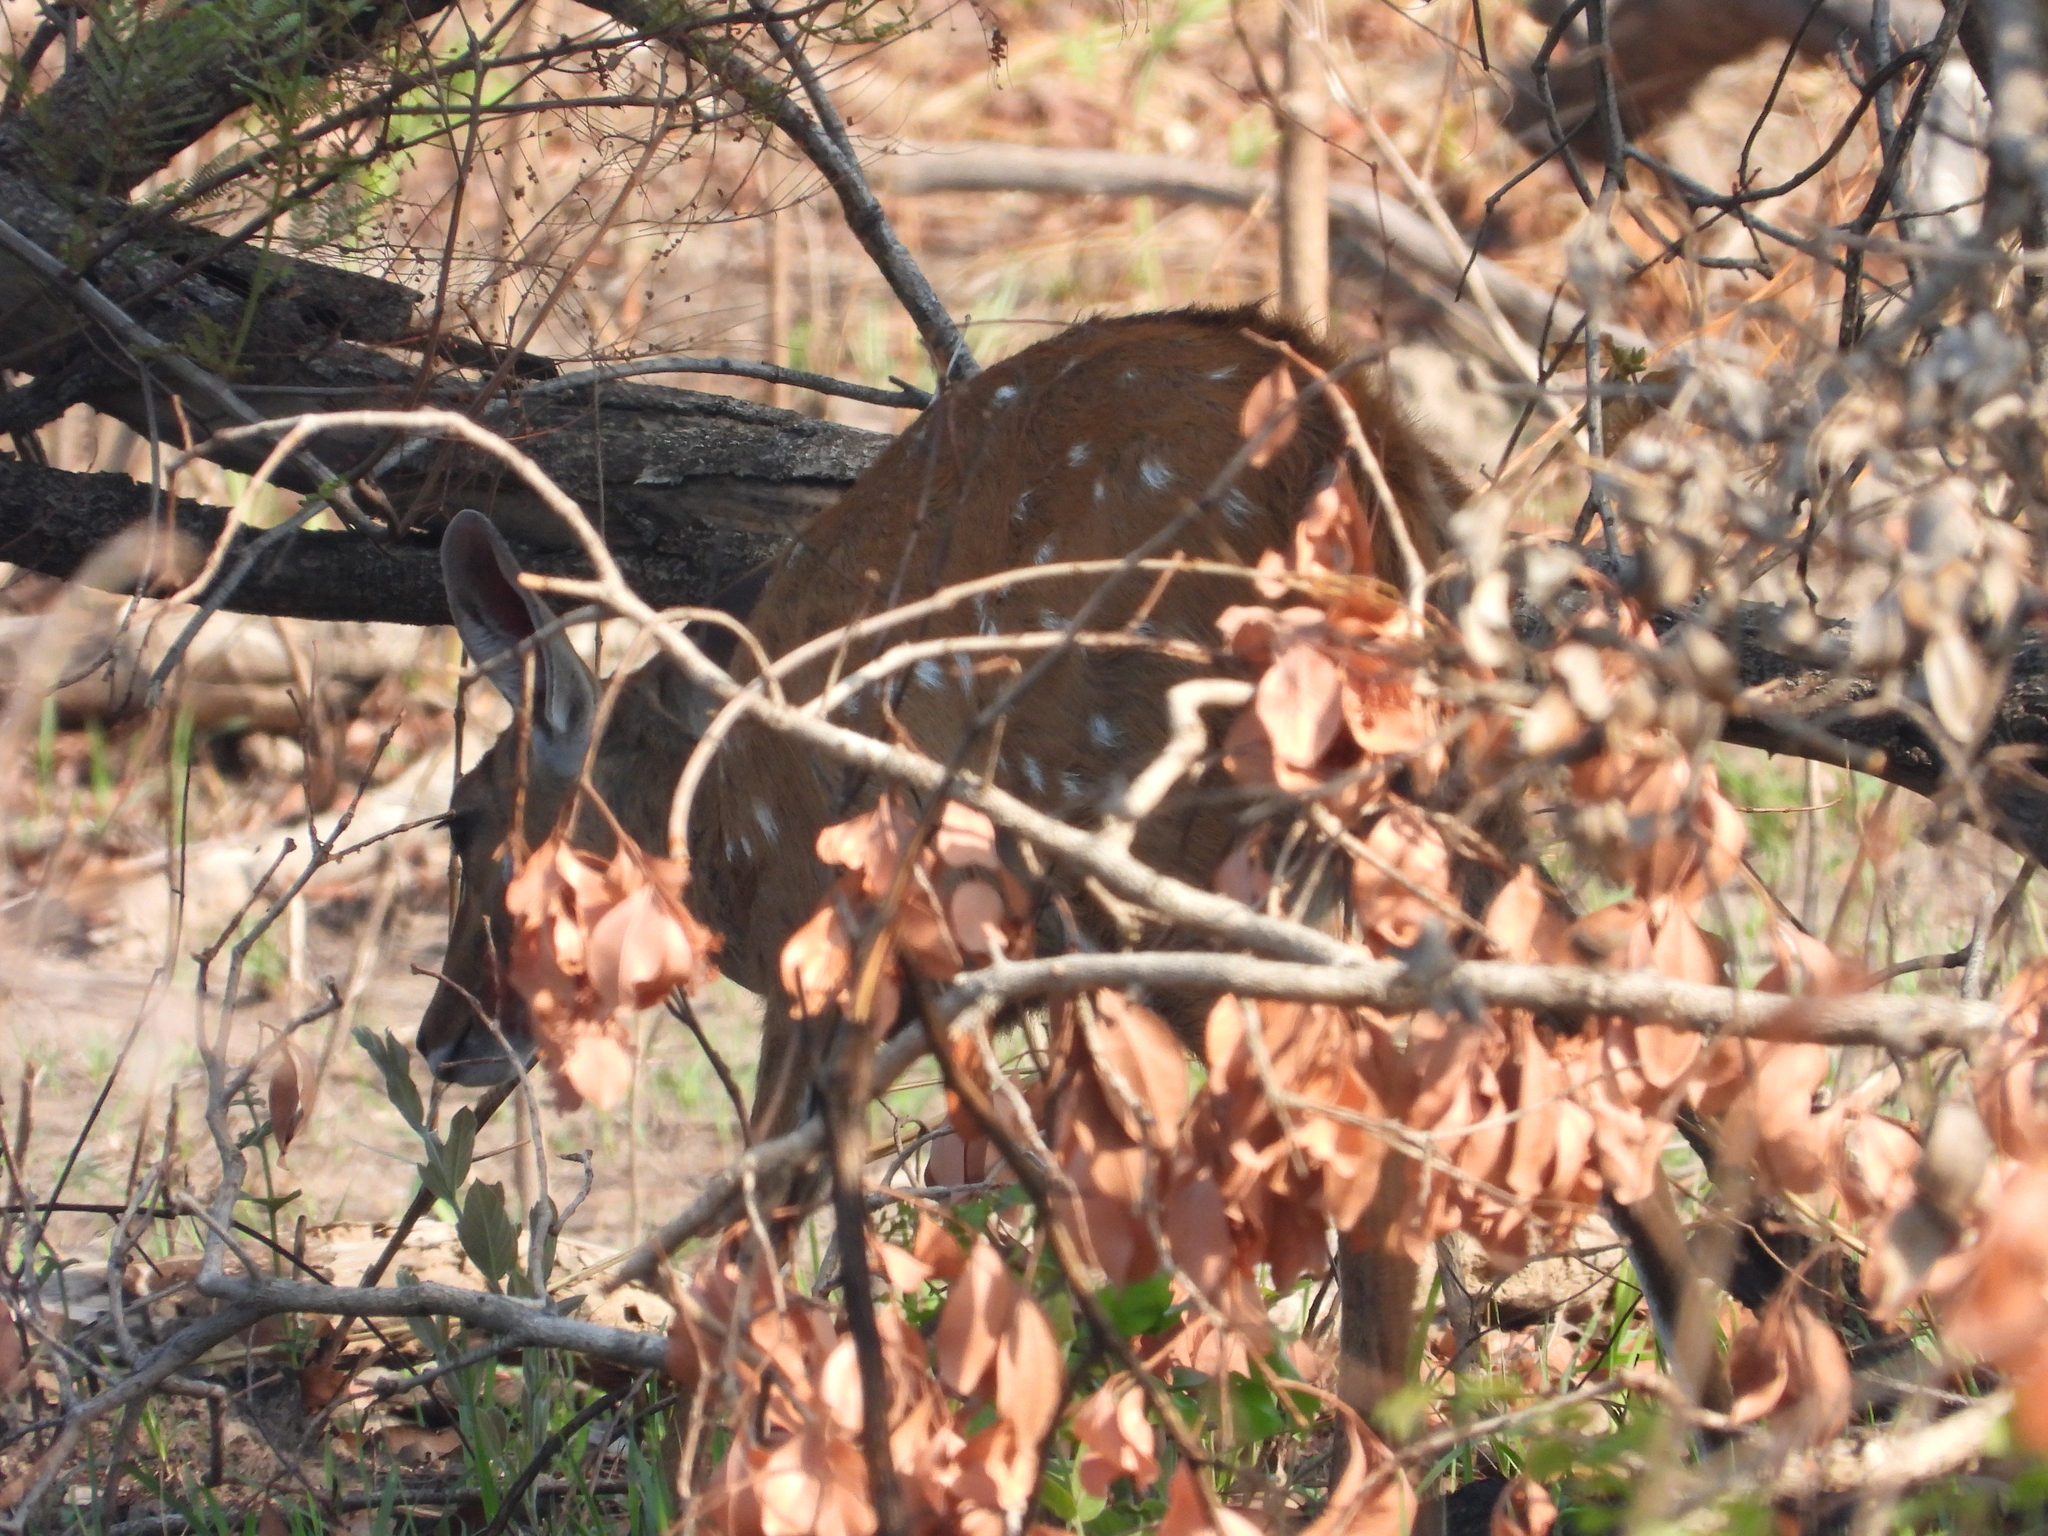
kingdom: Animalia
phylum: Chordata
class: Mammalia
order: Artiodactyla
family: Bovidae
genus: Tragelaphus
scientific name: Tragelaphus scriptus
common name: Bushbuck
